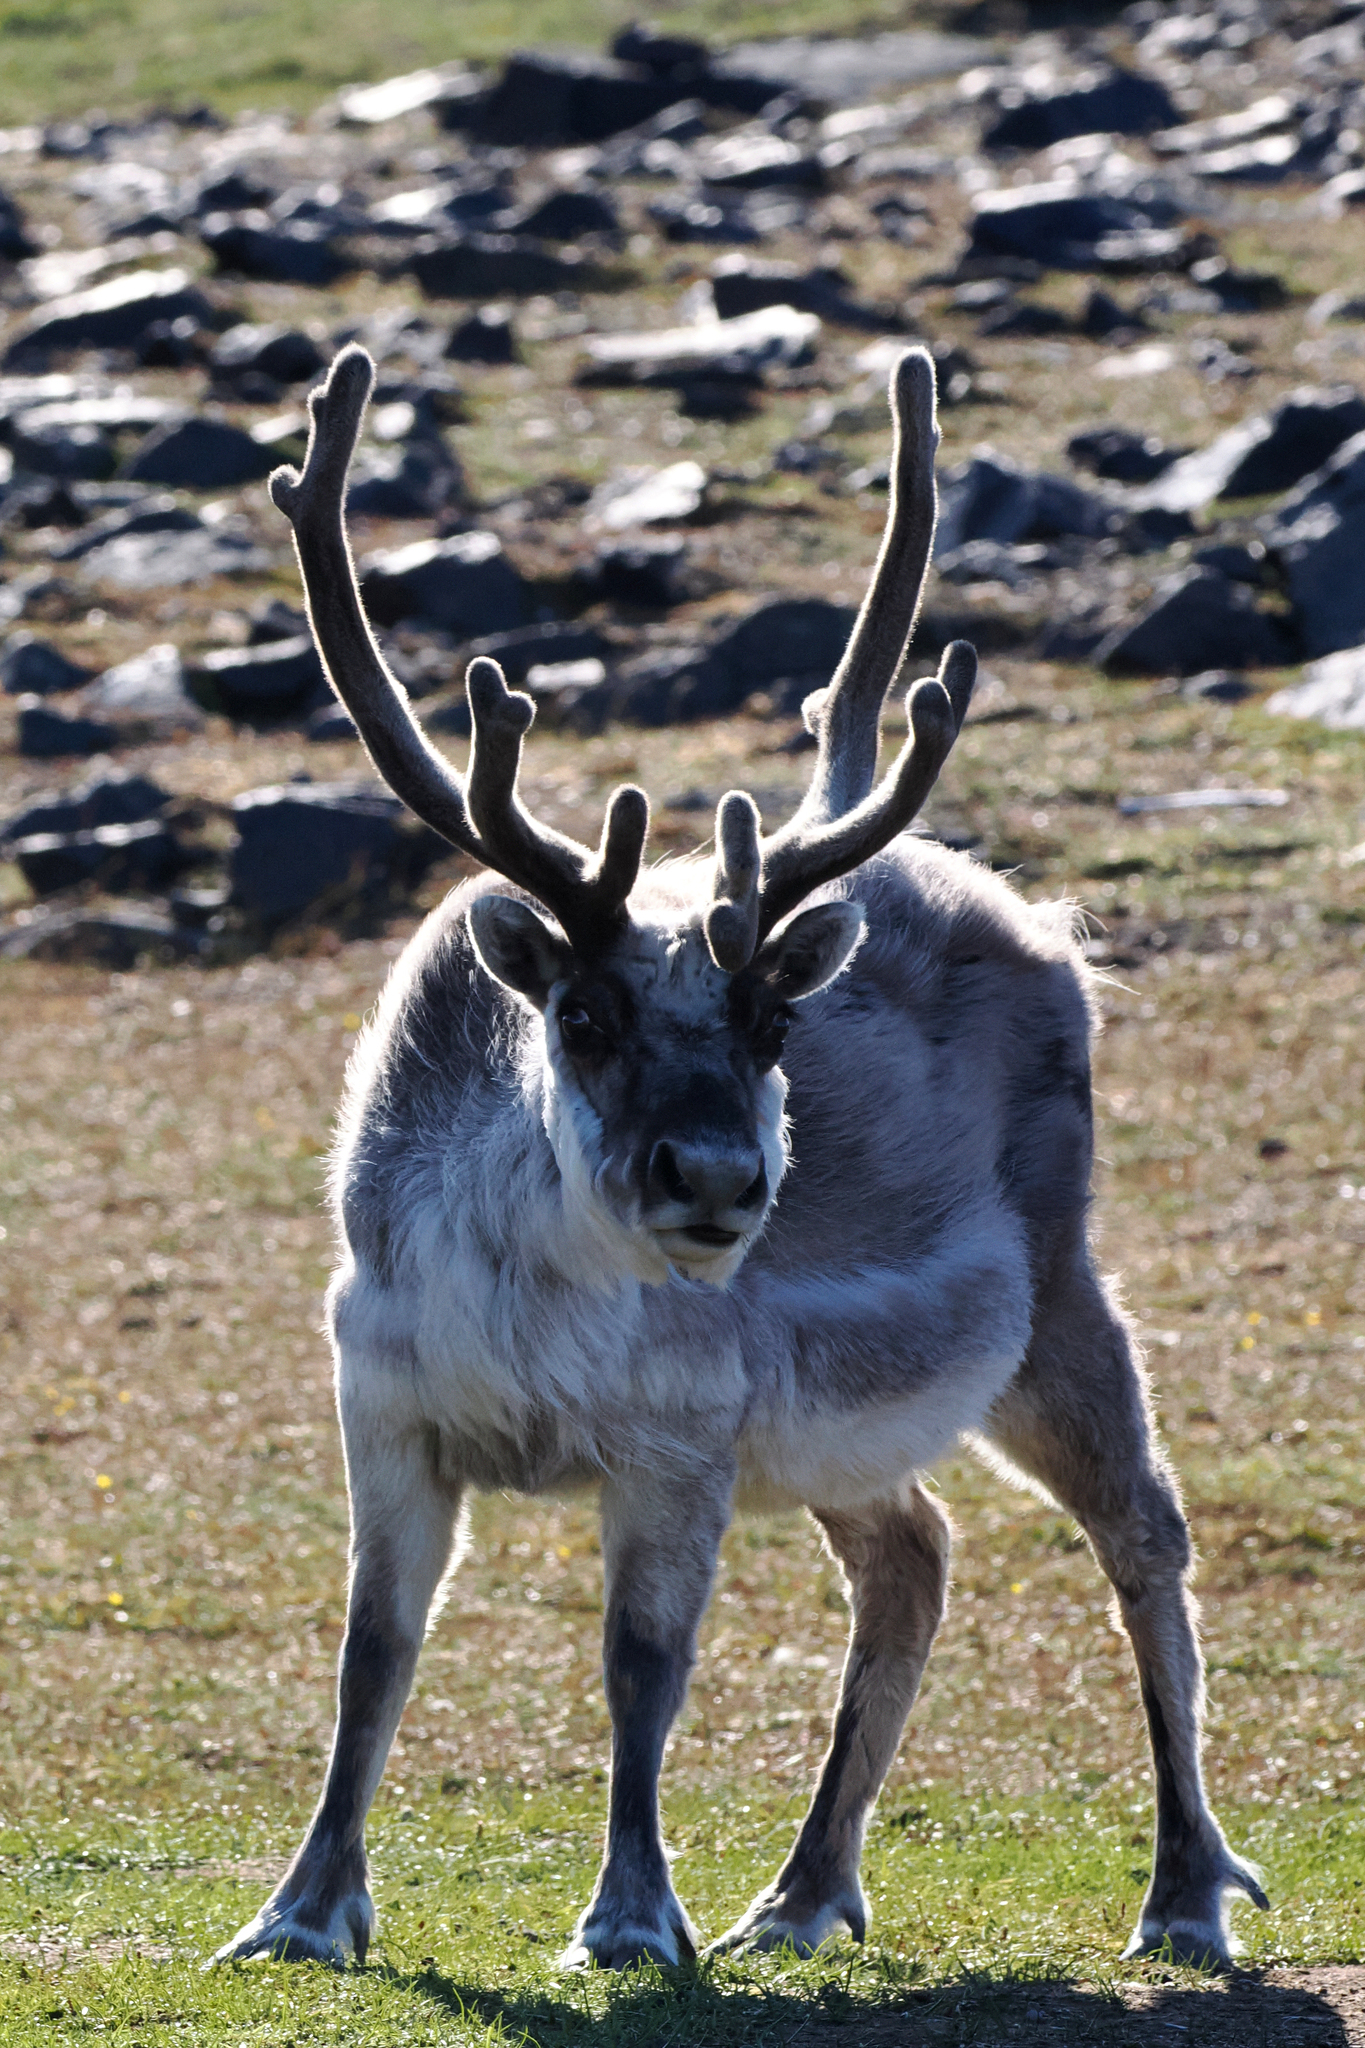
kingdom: Animalia
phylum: Chordata
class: Mammalia
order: Artiodactyla
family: Cervidae
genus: Rangifer
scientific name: Rangifer tarandus
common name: Reindeer
